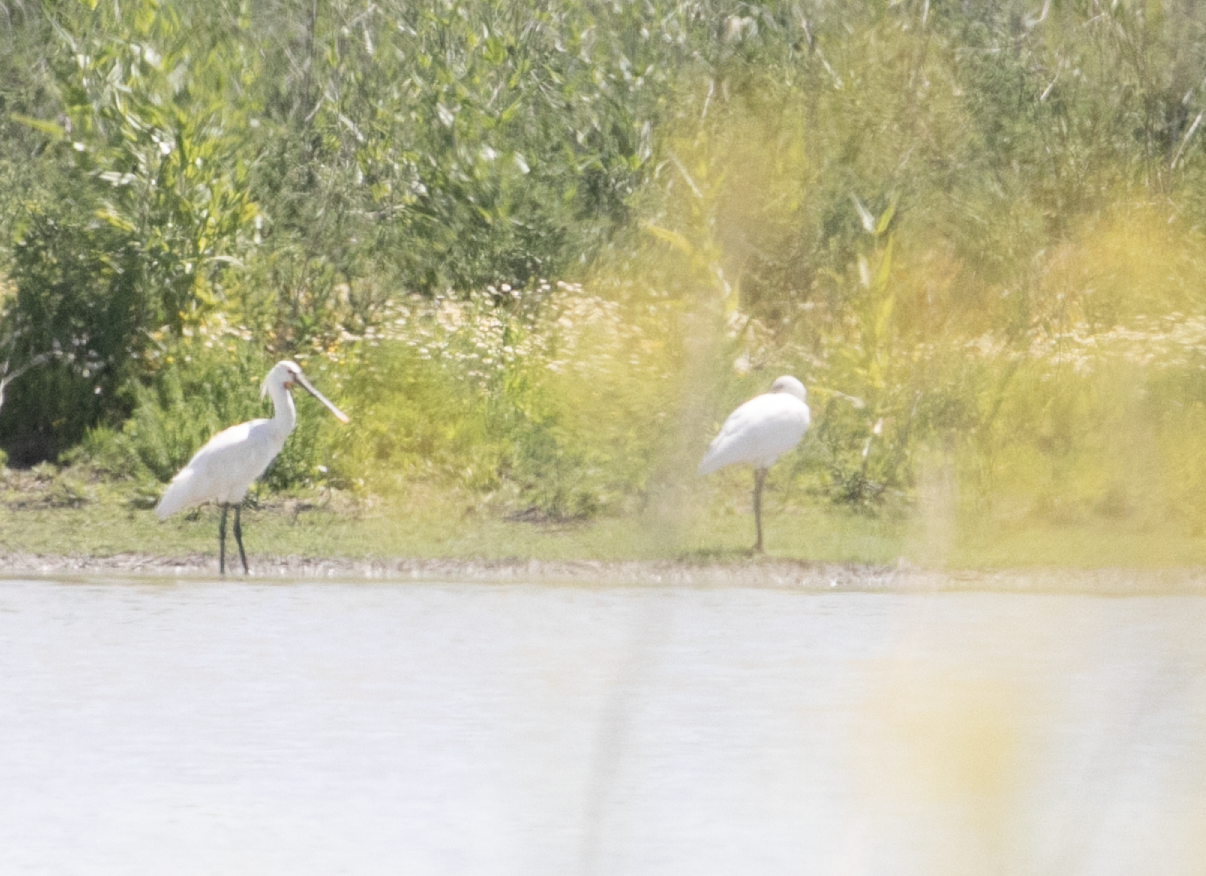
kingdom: Animalia
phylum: Chordata
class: Aves
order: Pelecaniformes
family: Threskiornithidae
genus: Platalea
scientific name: Platalea leucorodia
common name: Eurasian spoonbill
